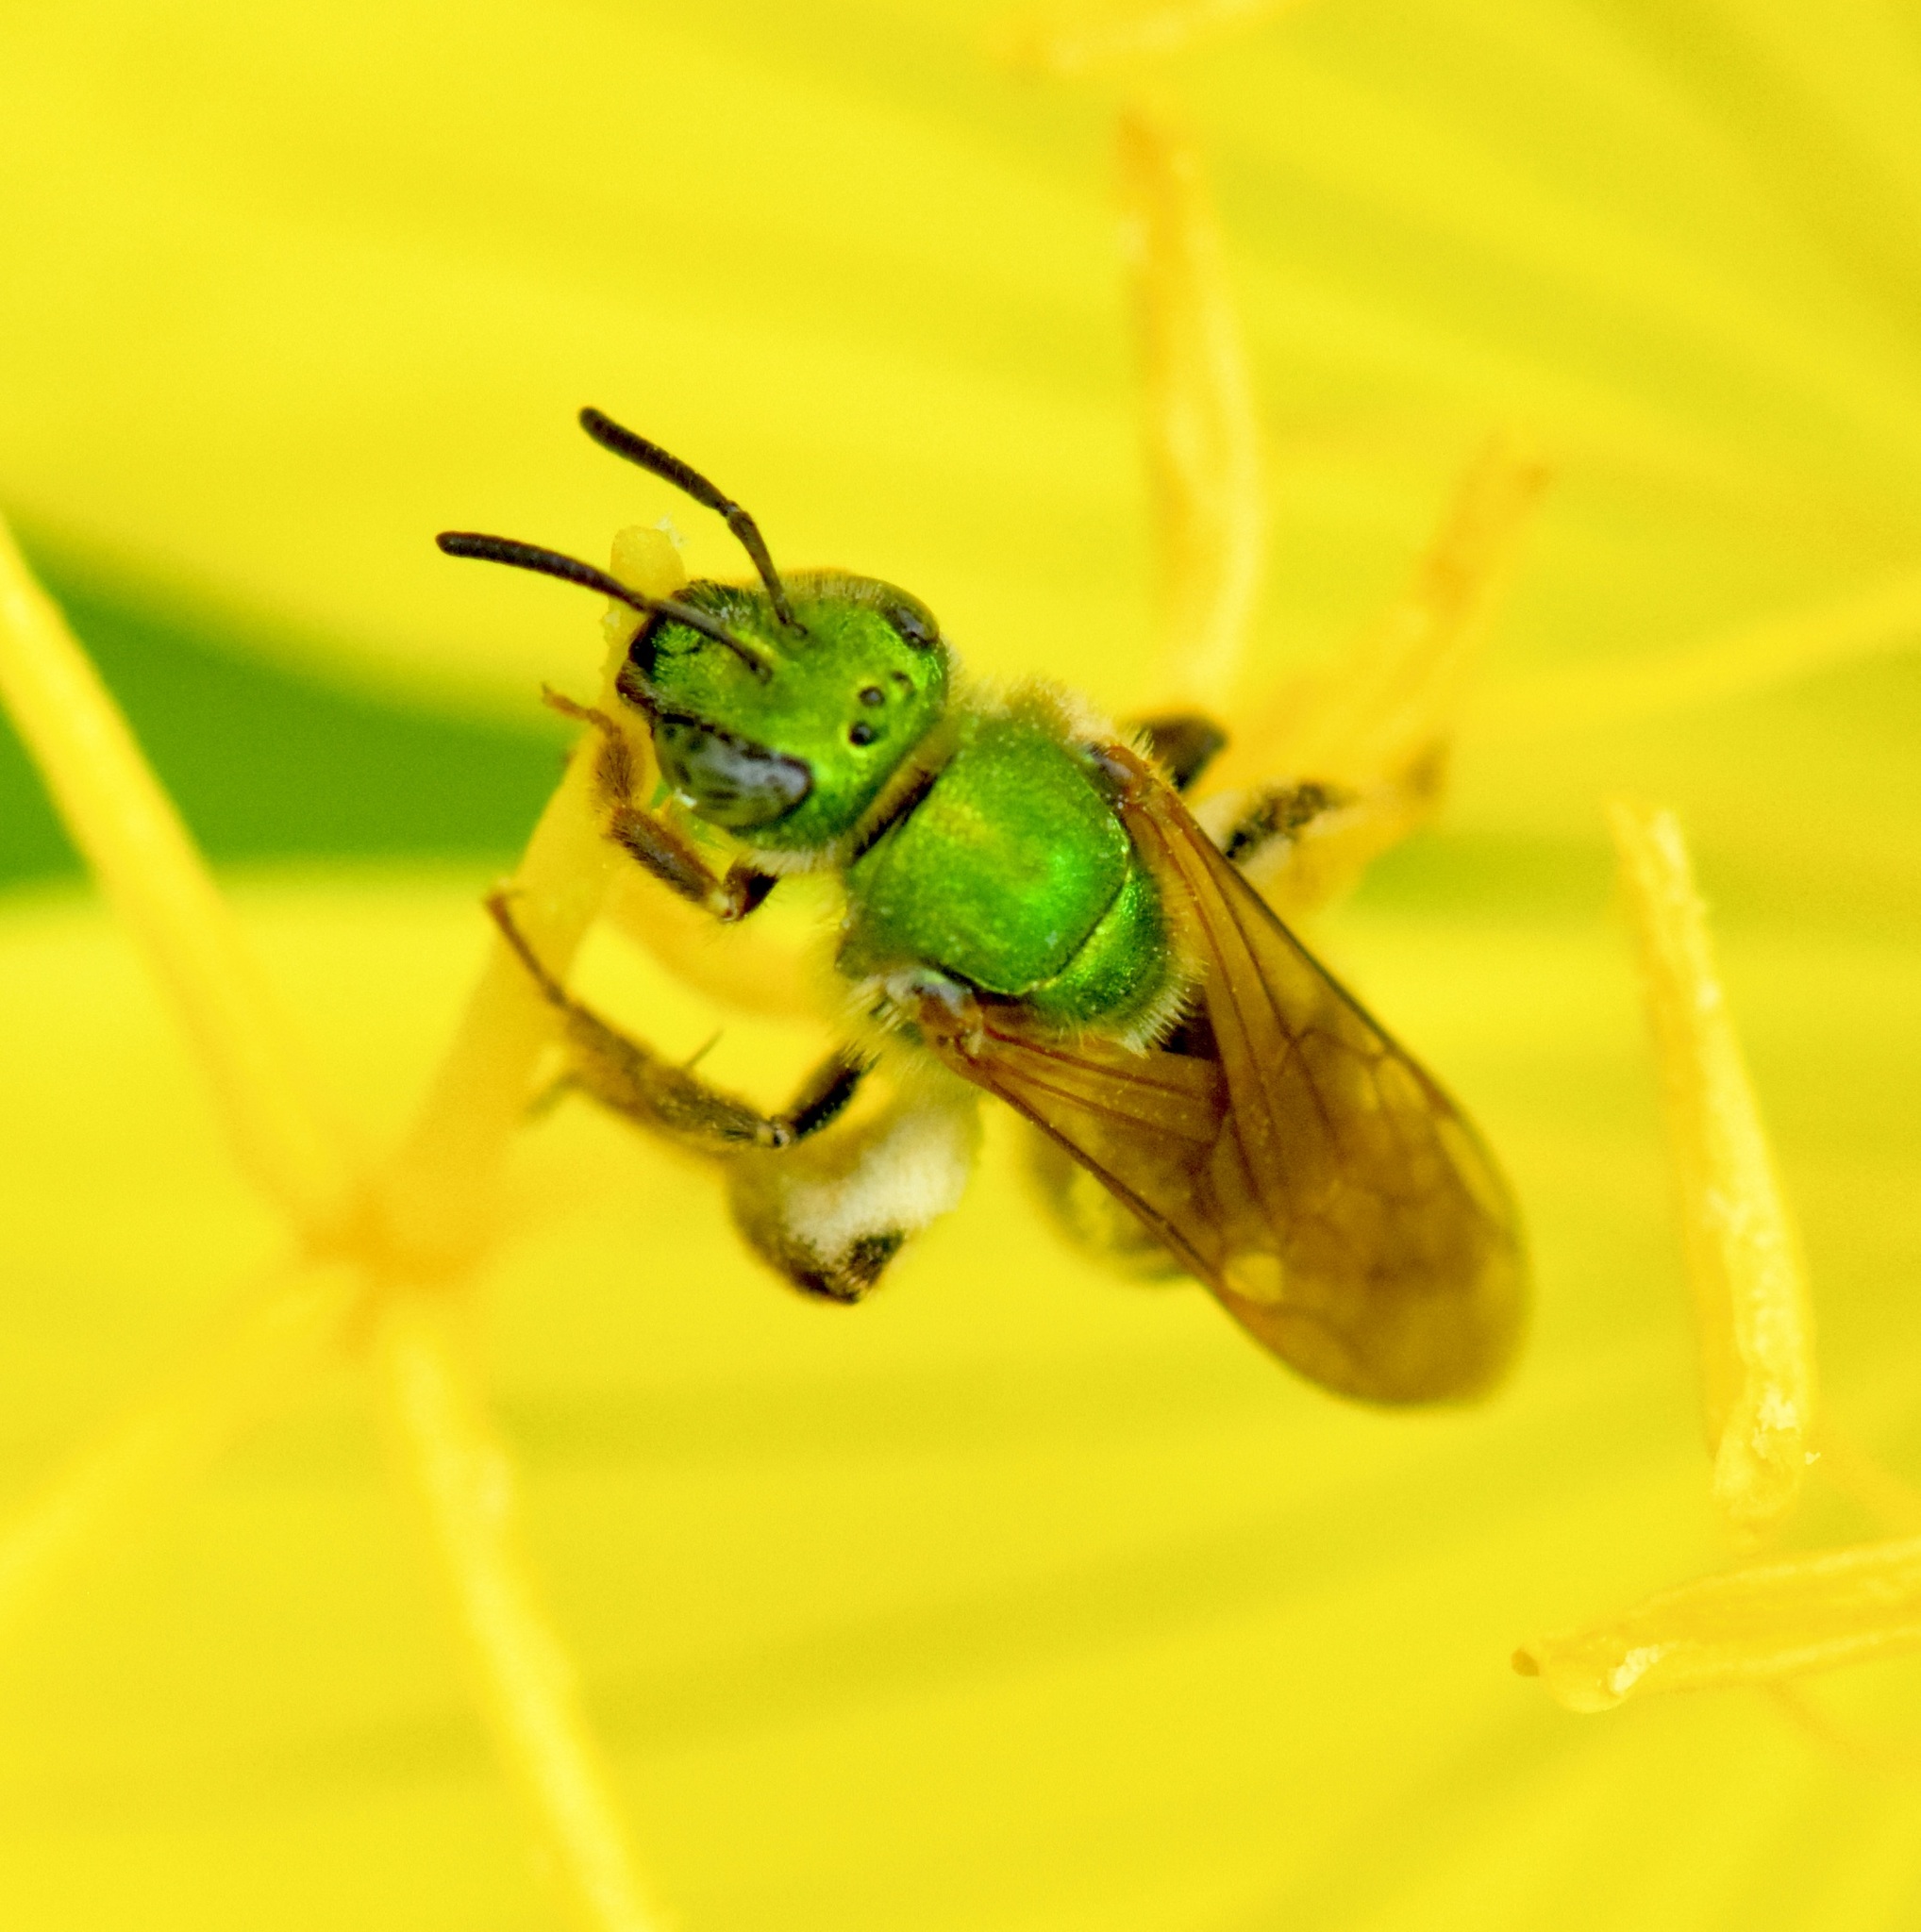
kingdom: Animalia
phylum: Arthropoda
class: Insecta
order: Hymenoptera
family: Halictidae
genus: Agapostemon
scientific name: Agapostemon virescens
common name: Bicolored striped sweat bee
